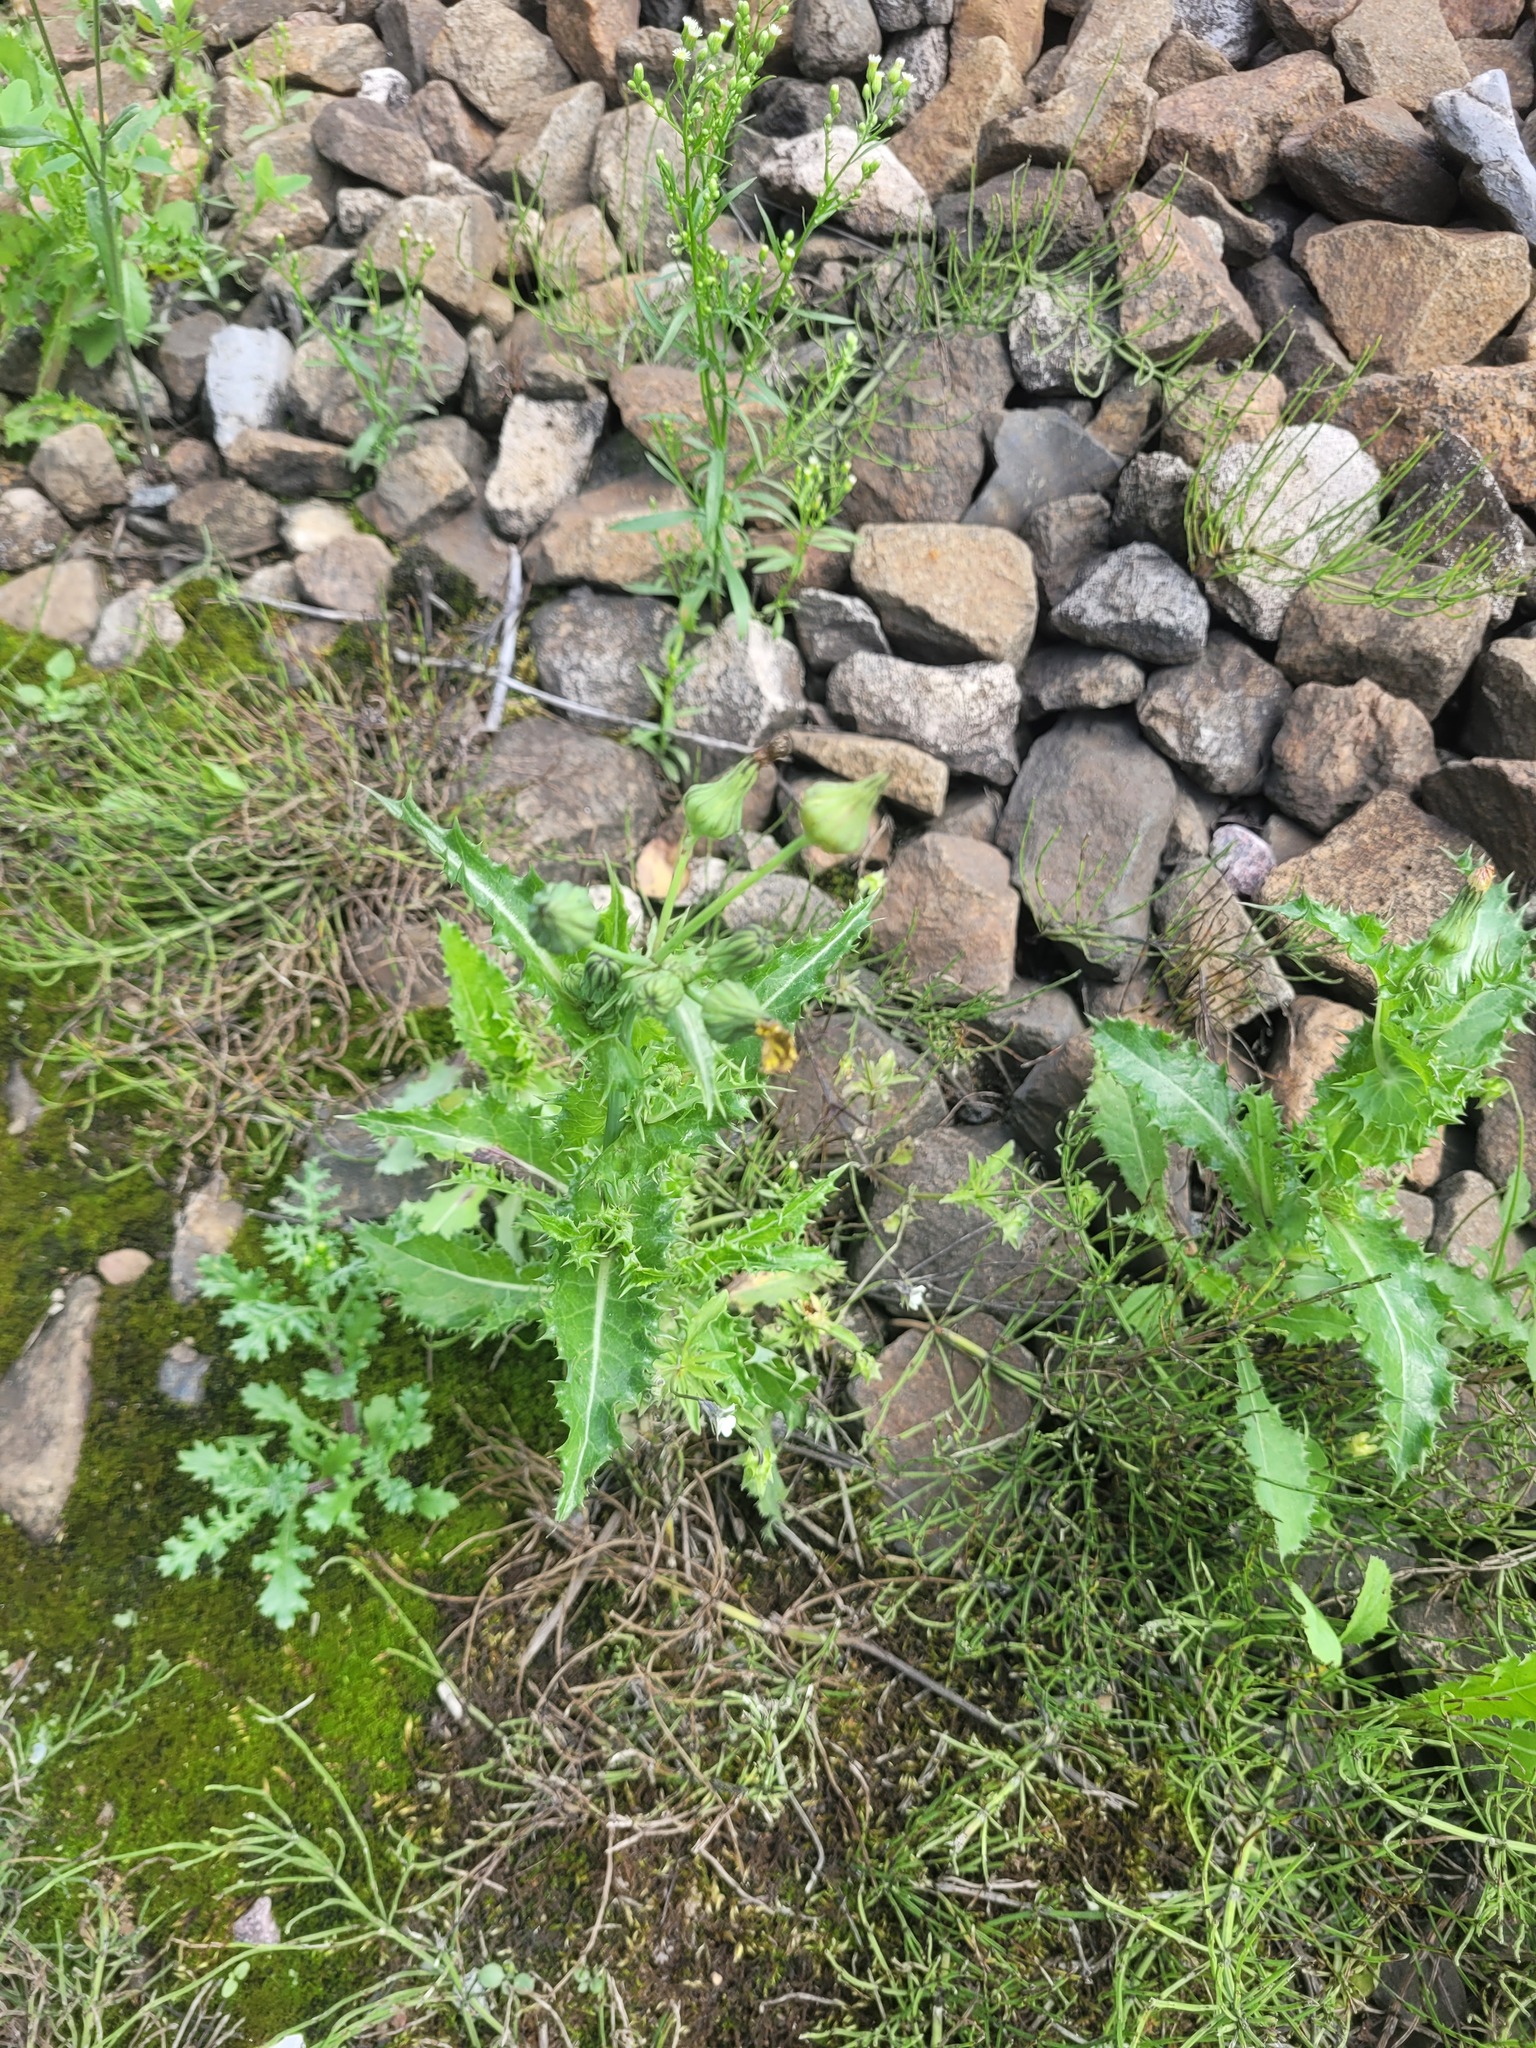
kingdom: Plantae
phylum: Tracheophyta
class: Magnoliopsida
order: Asterales
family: Asteraceae
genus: Sonchus
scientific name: Sonchus asper
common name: Prickly sow-thistle
